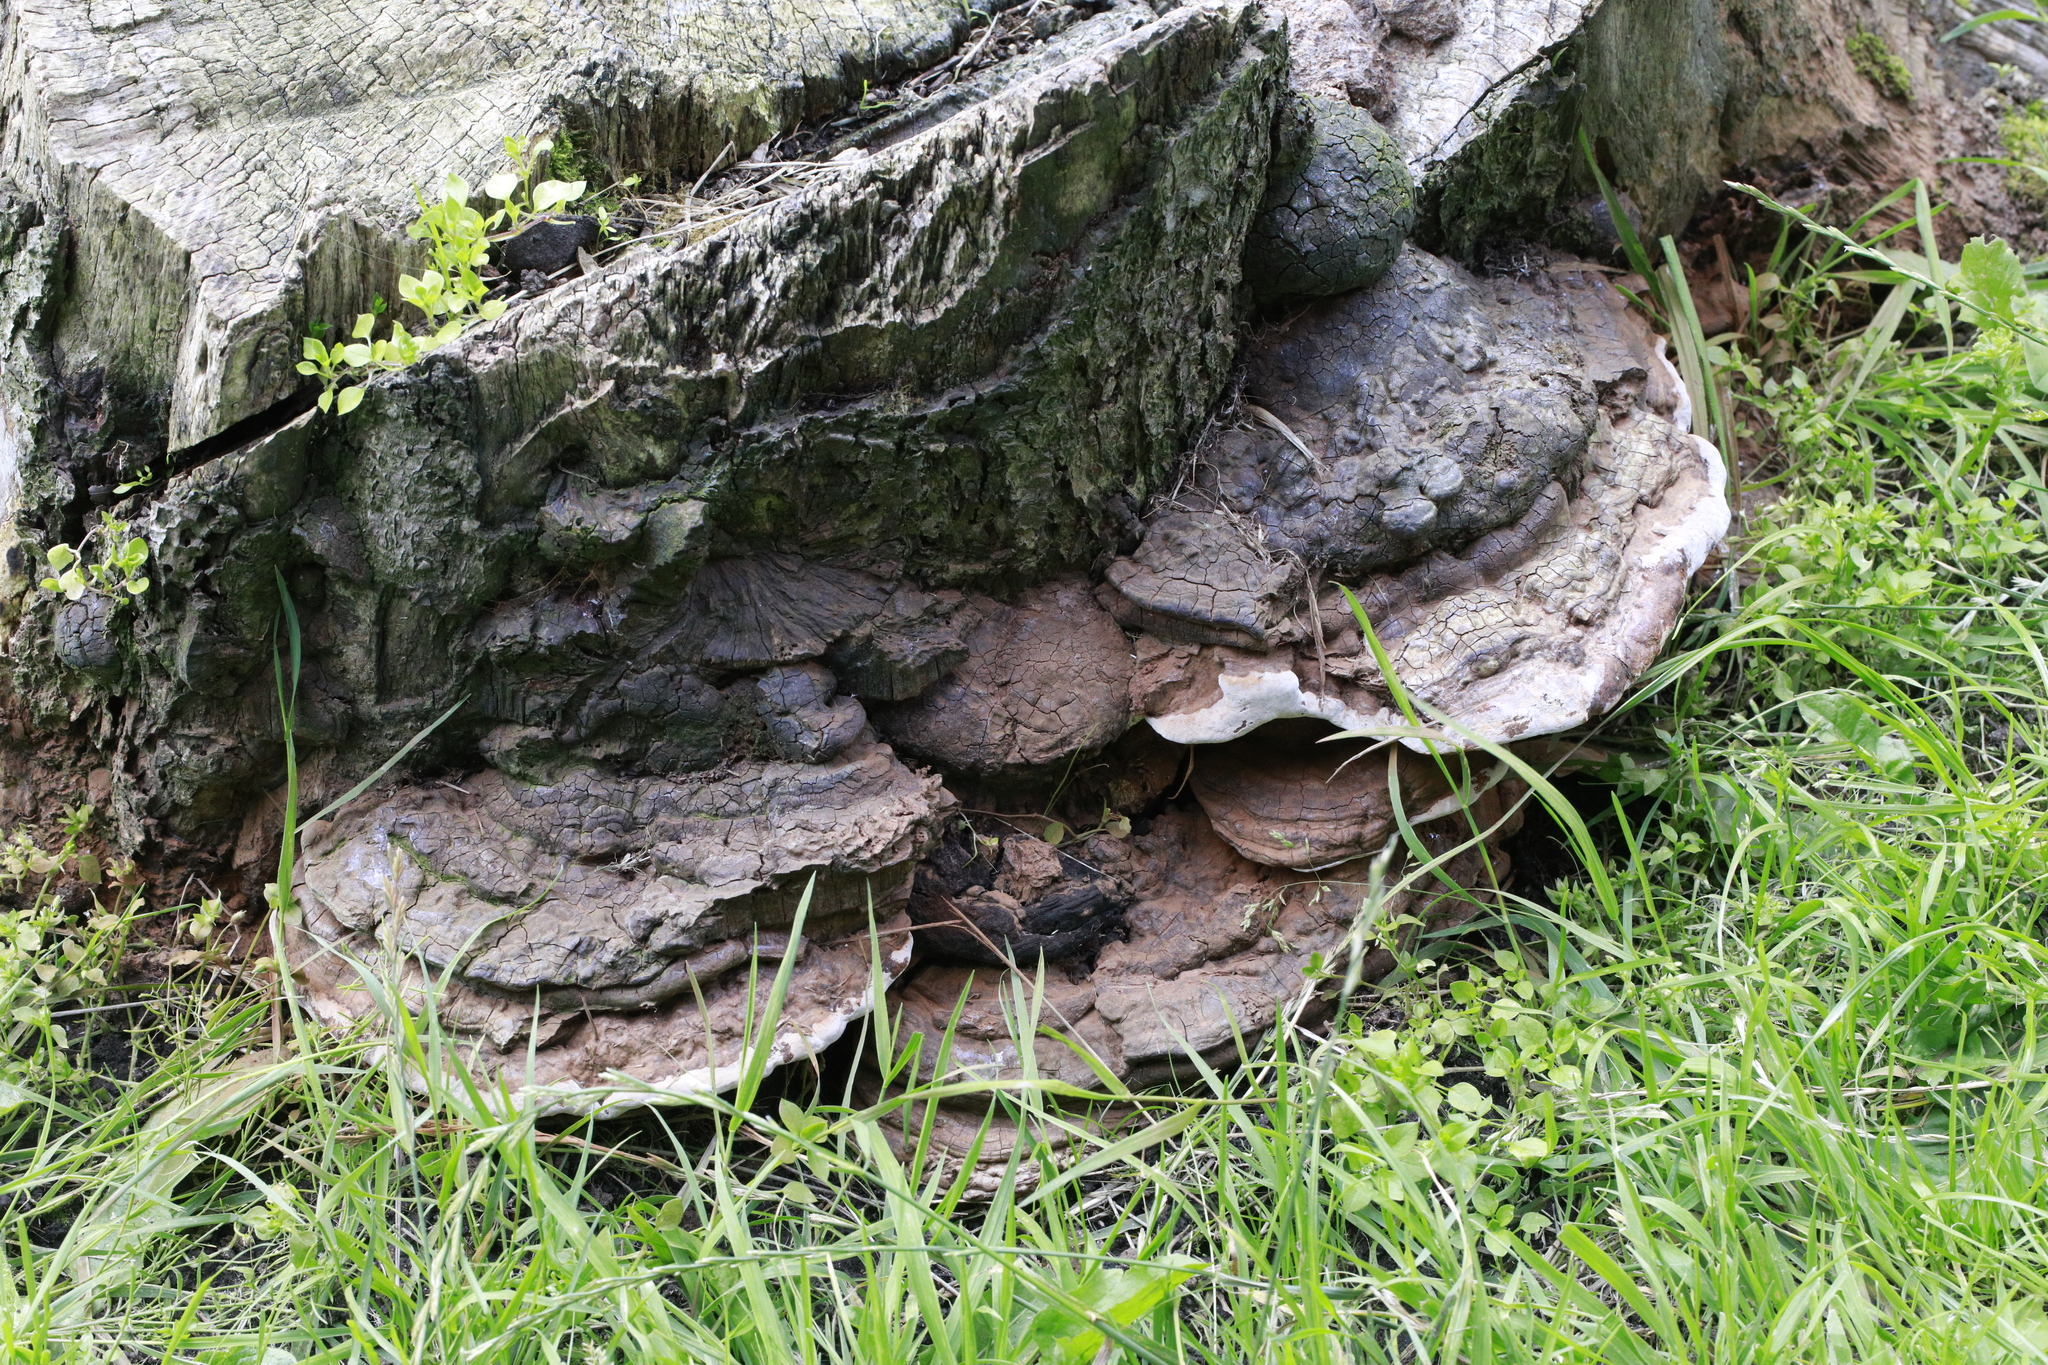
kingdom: Fungi
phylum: Basidiomycota
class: Agaricomycetes
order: Polyporales
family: Polyporaceae
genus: Ganoderma
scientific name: Ganoderma applanatum
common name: Artist's bracket
